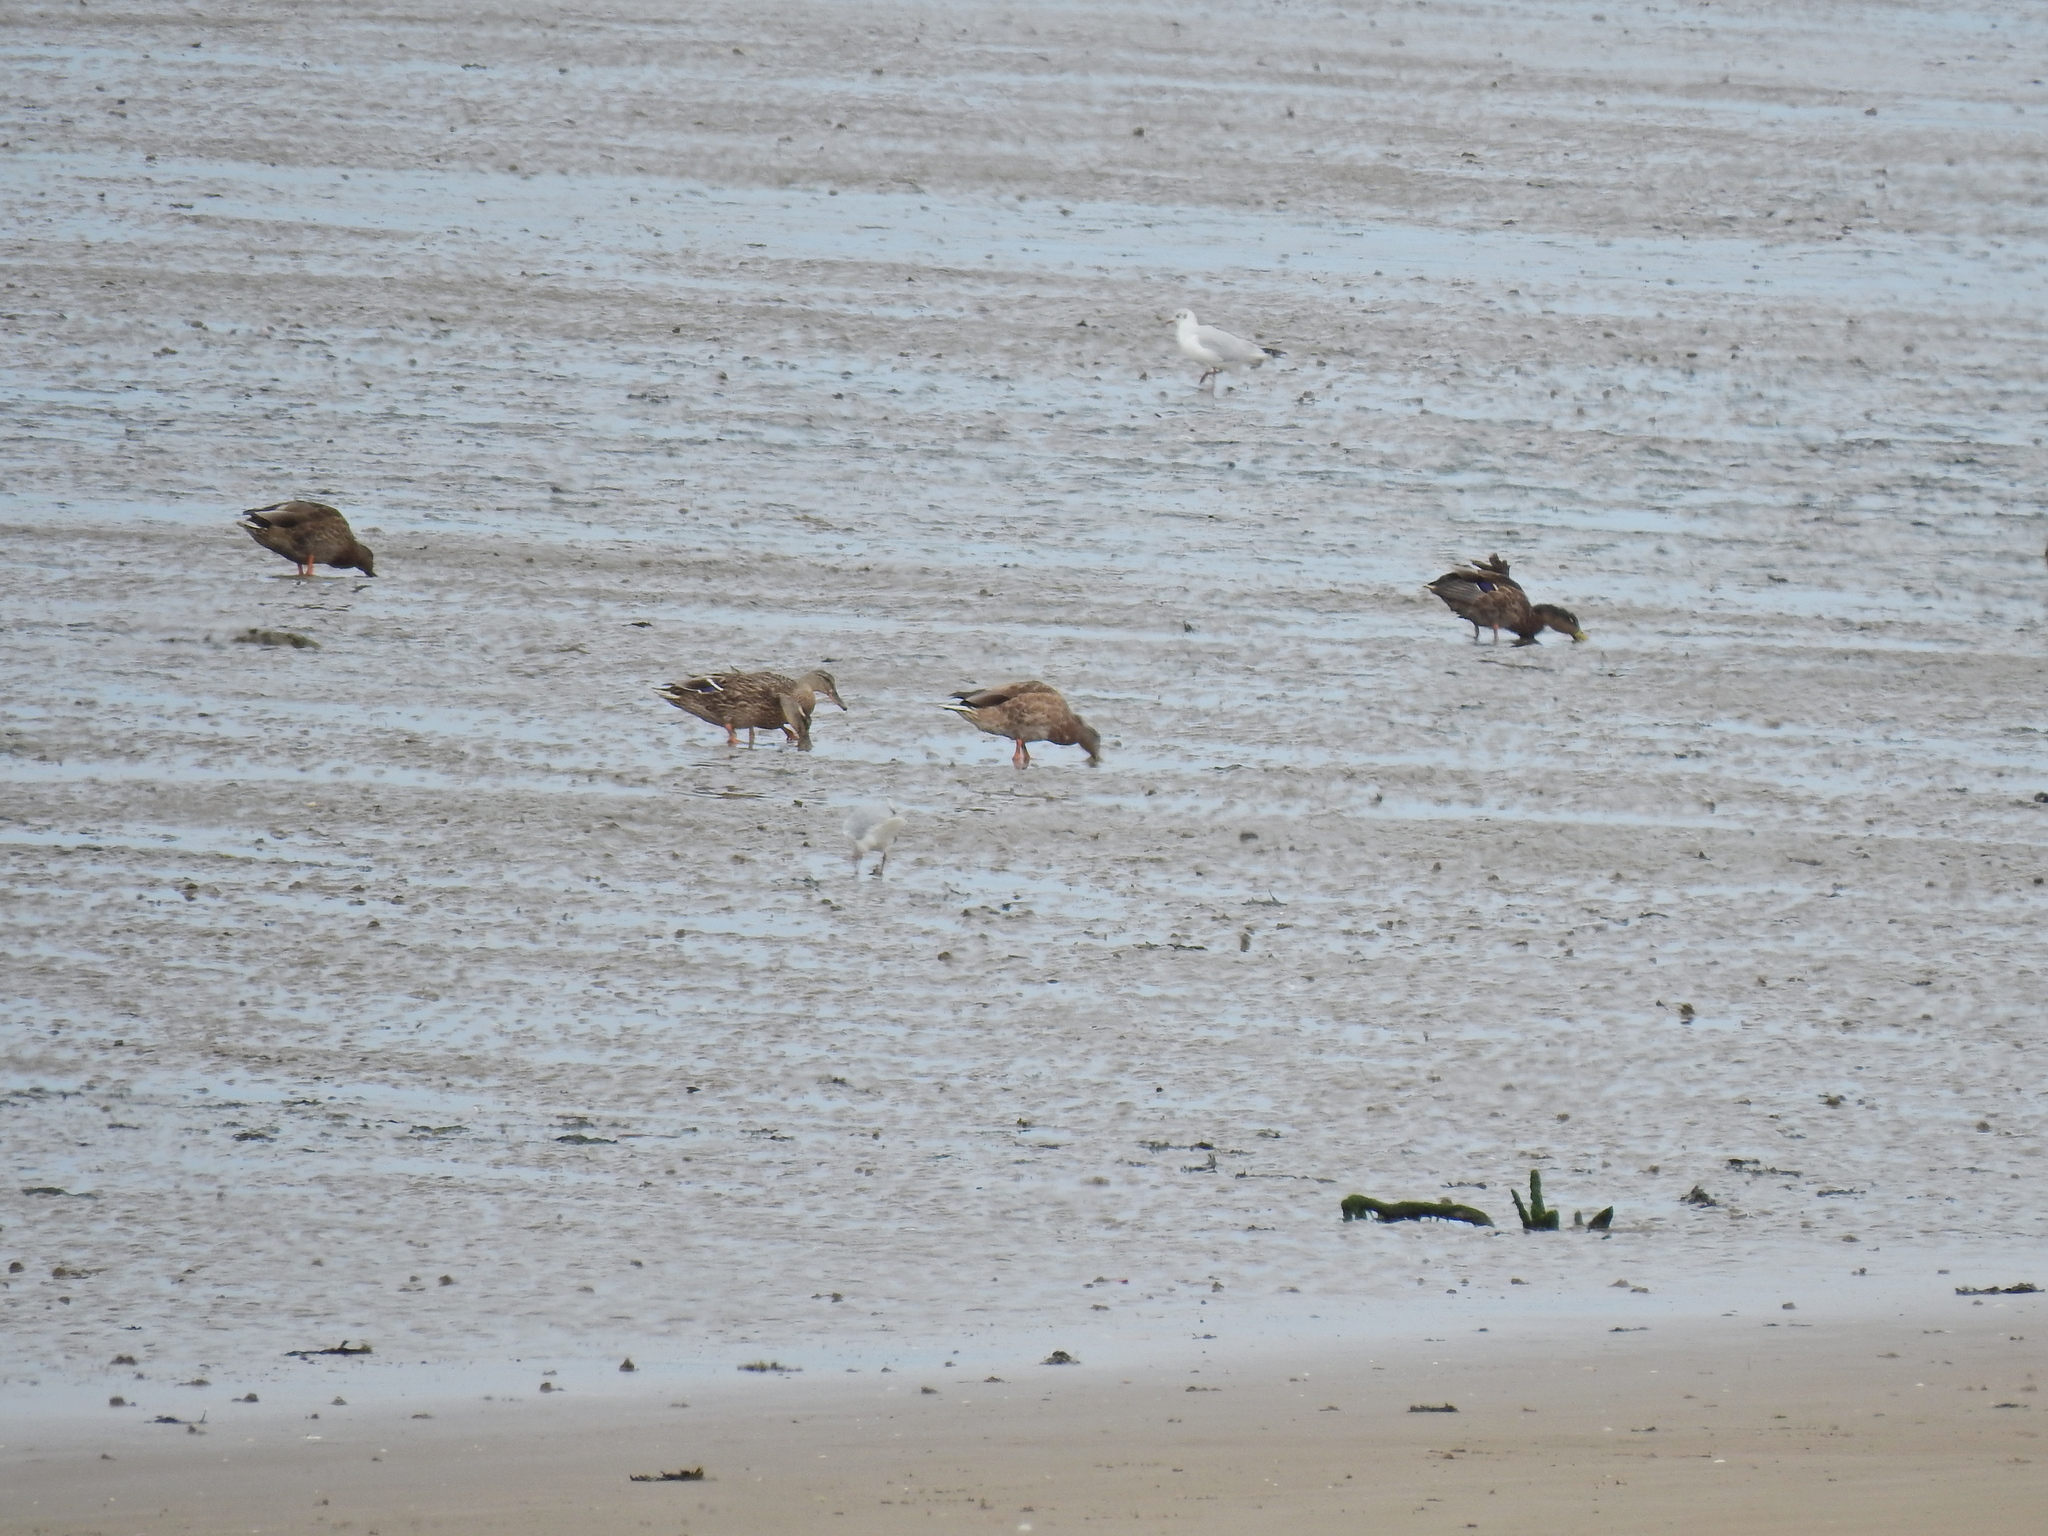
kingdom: Animalia
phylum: Chordata
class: Aves
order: Anseriformes
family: Anatidae
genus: Anas
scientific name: Anas platyrhynchos
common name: Mallard
